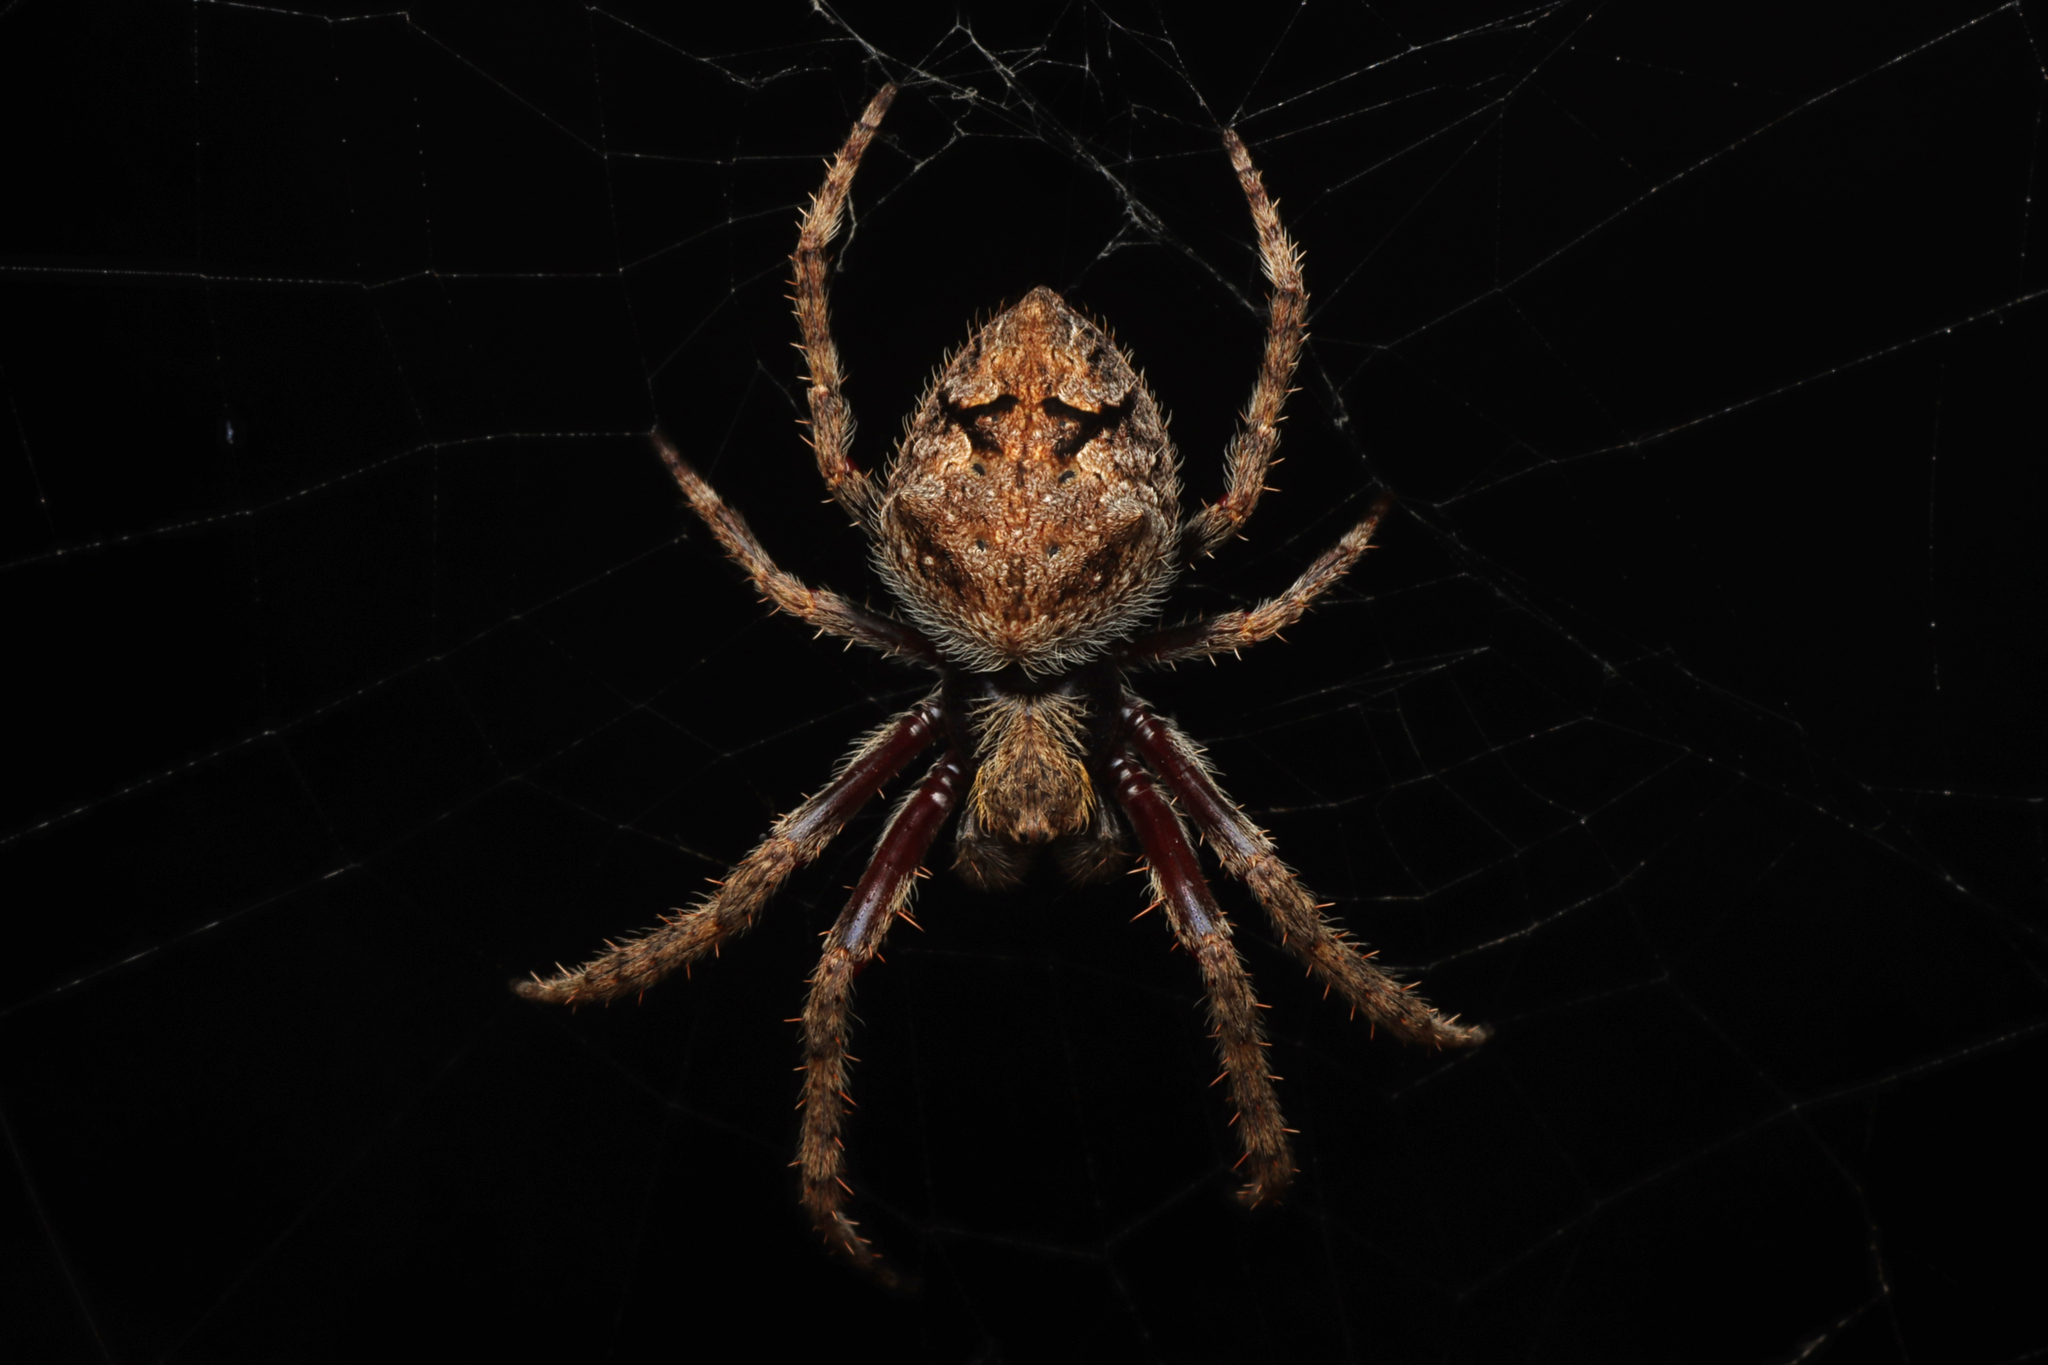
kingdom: Animalia
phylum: Arthropoda
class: Arachnida
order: Araneae
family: Araneidae
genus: Hortophora
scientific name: Hortophora biapicata
